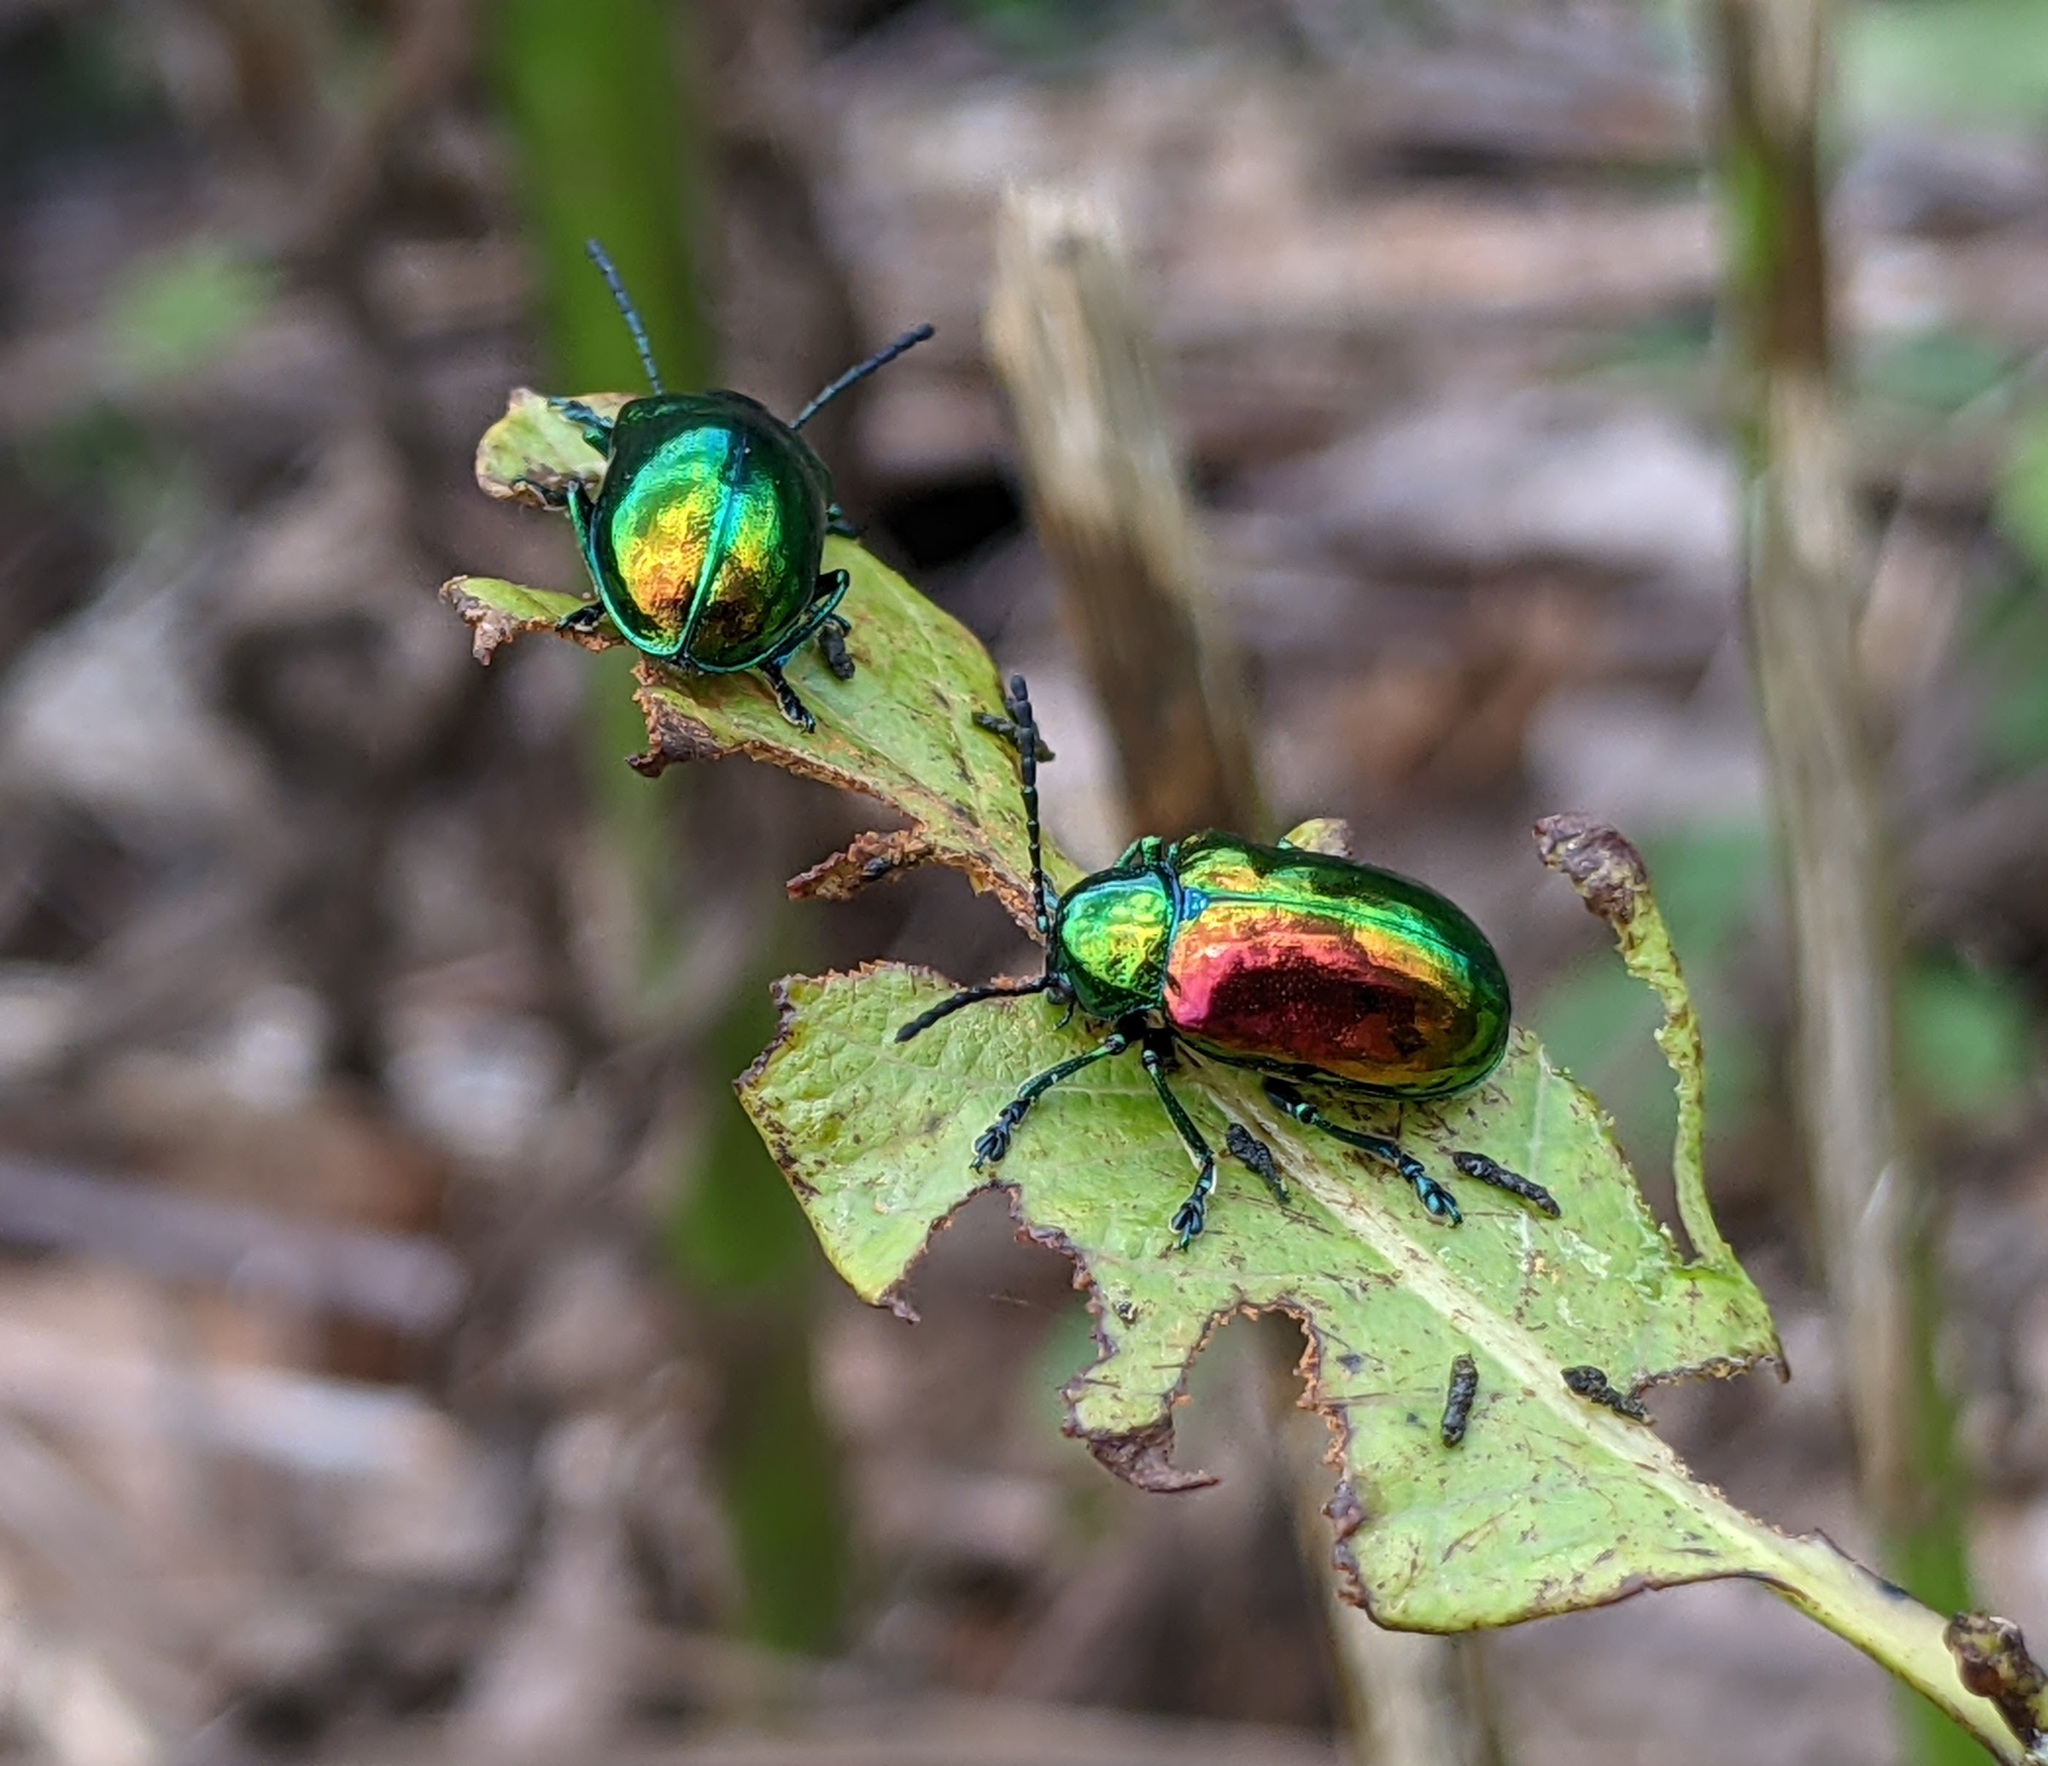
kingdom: Animalia
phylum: Arthropoda
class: Insecta
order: Coleoptera
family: Chrysomelidae
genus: Chrysochus
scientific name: Chrysochus auratus
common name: Dogbane leaf beetle
